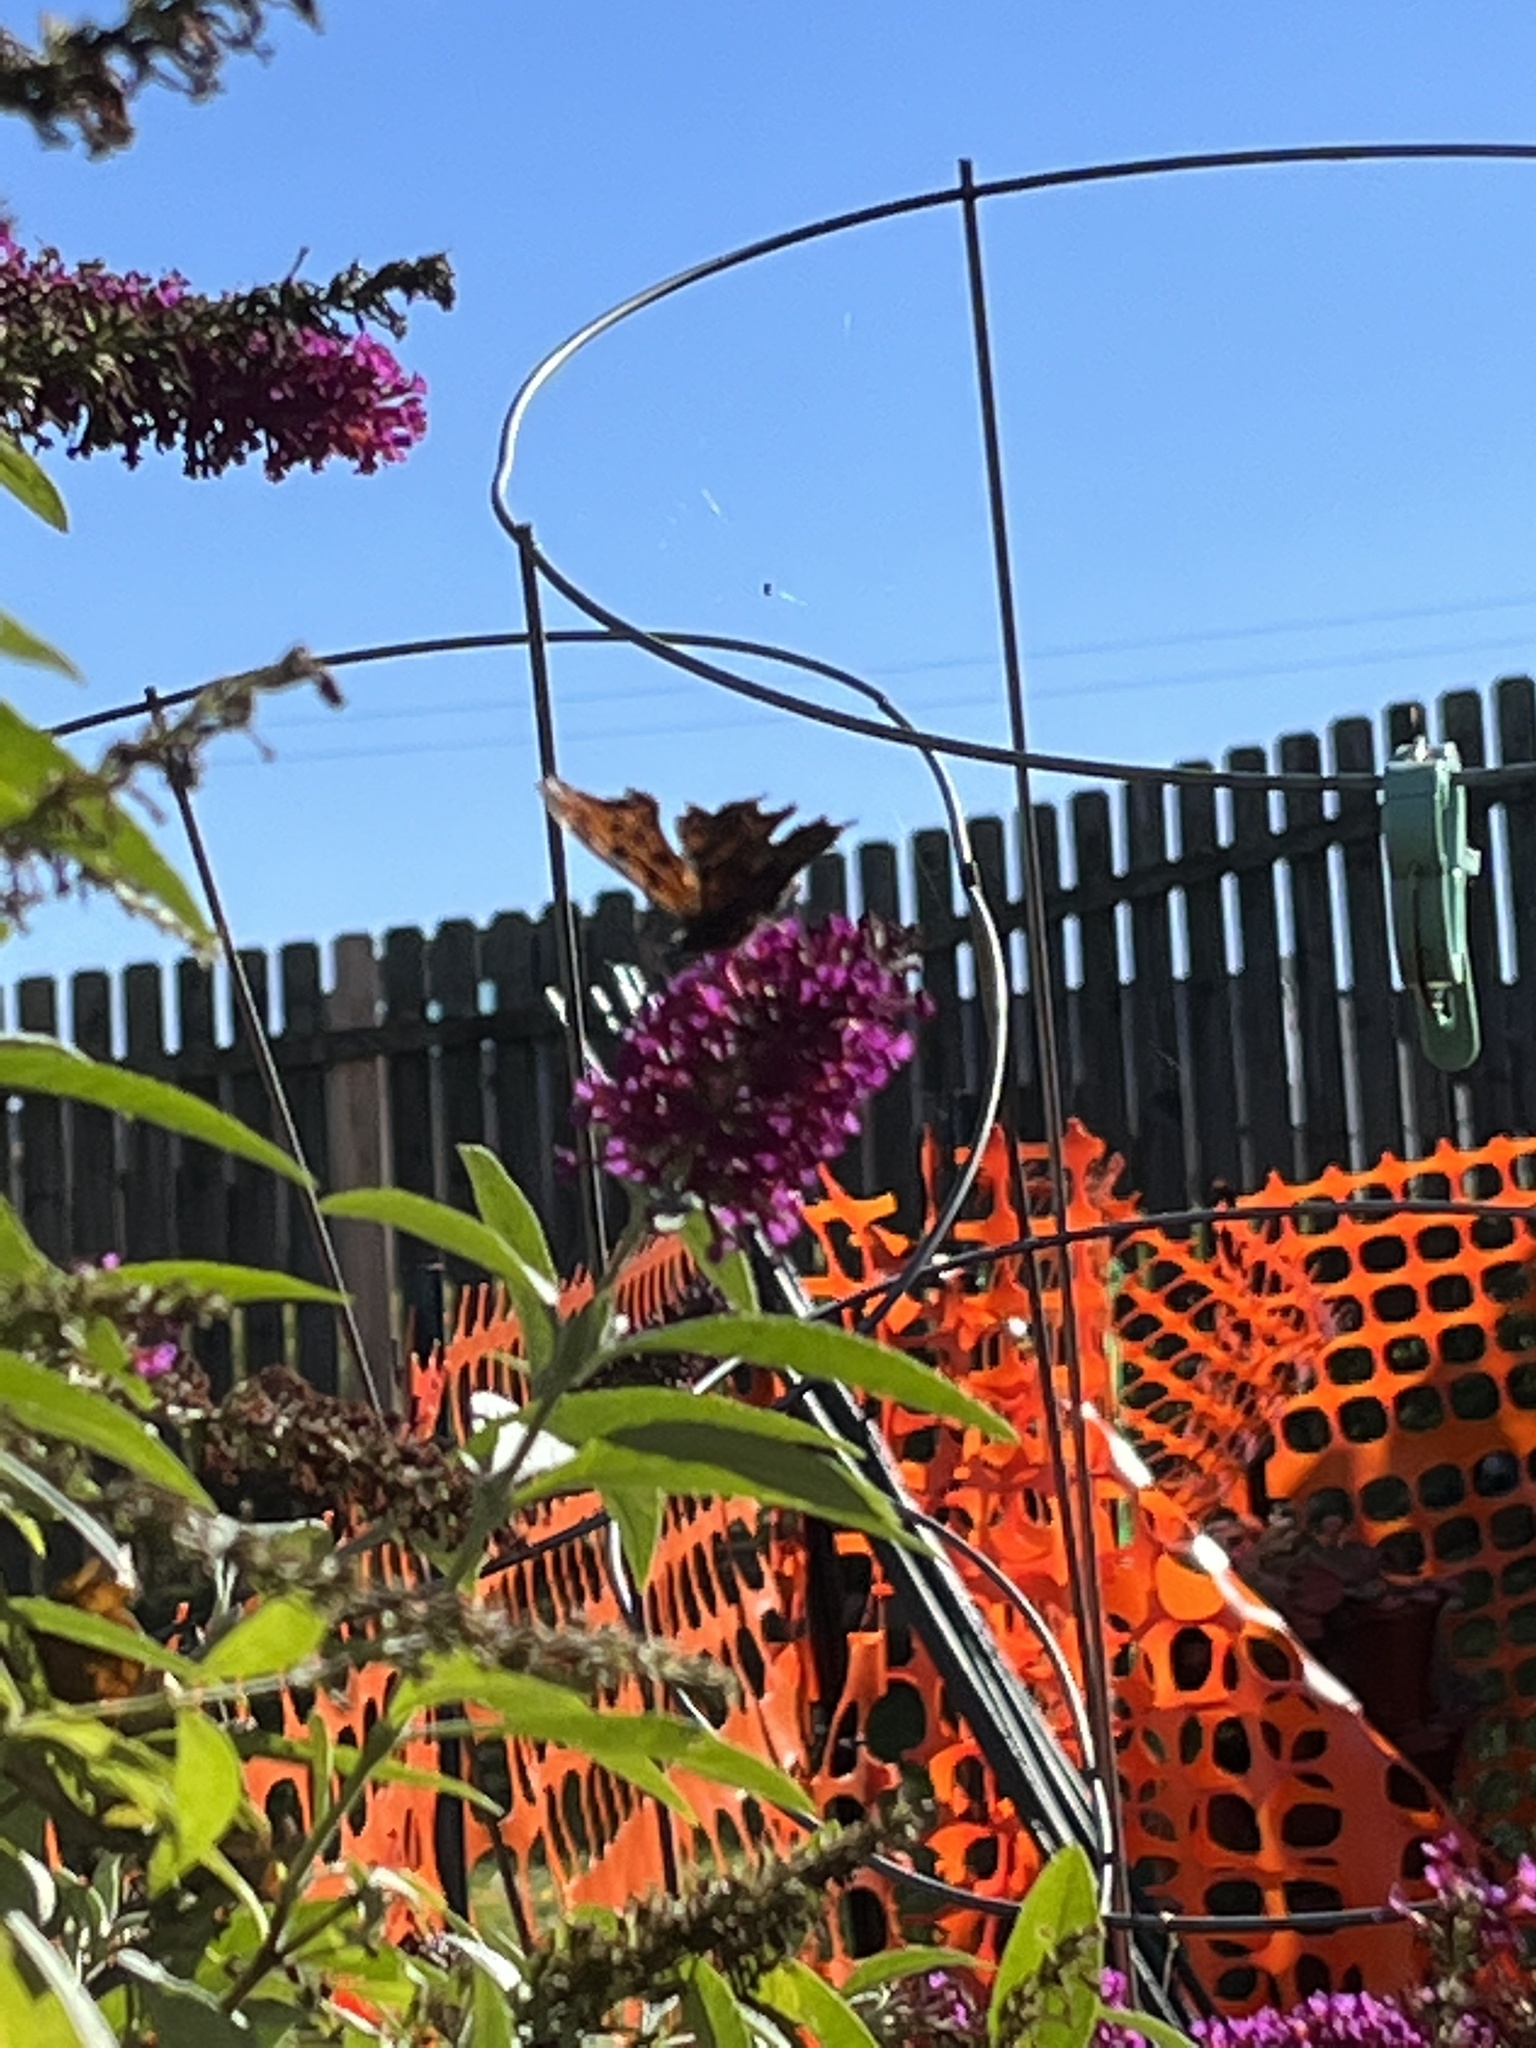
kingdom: Animalia
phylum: Arthropoda
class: Insecta
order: Lepidoptera
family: Nymphalidae
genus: Polygonia
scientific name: Polygonia comma
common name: Eastern comma
